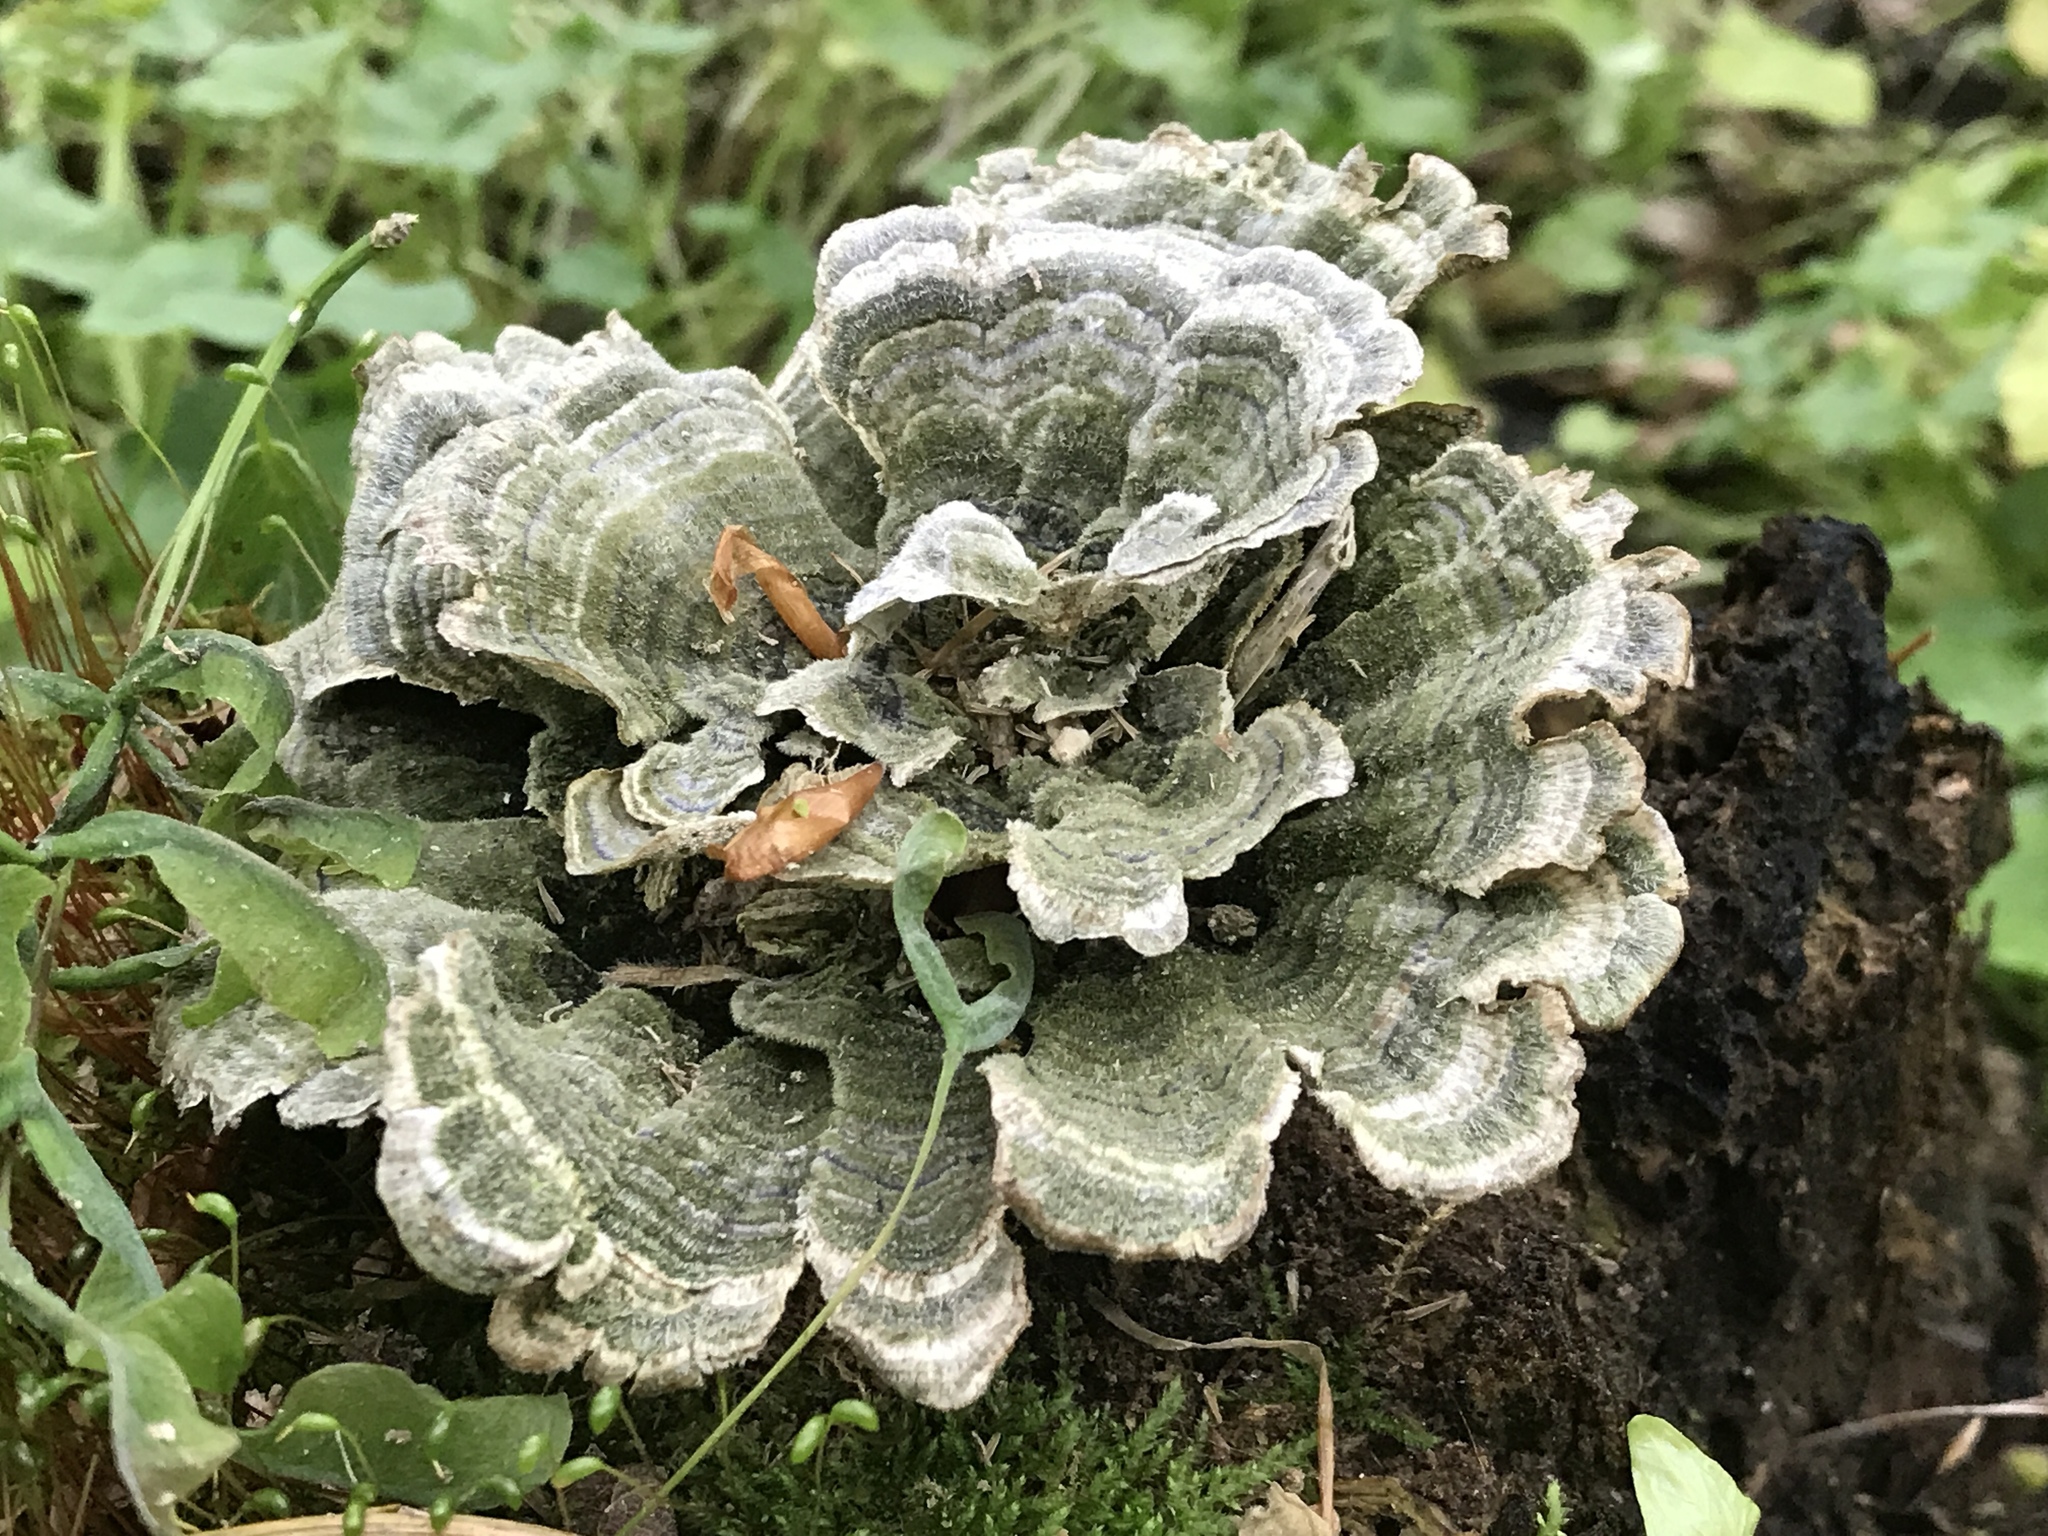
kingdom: Fungi
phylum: Basidiomycota
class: Agaricomycetes
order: Polyporales
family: Polyporaceae
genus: Trametes
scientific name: Trametes versicolor
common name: Turkeytail
